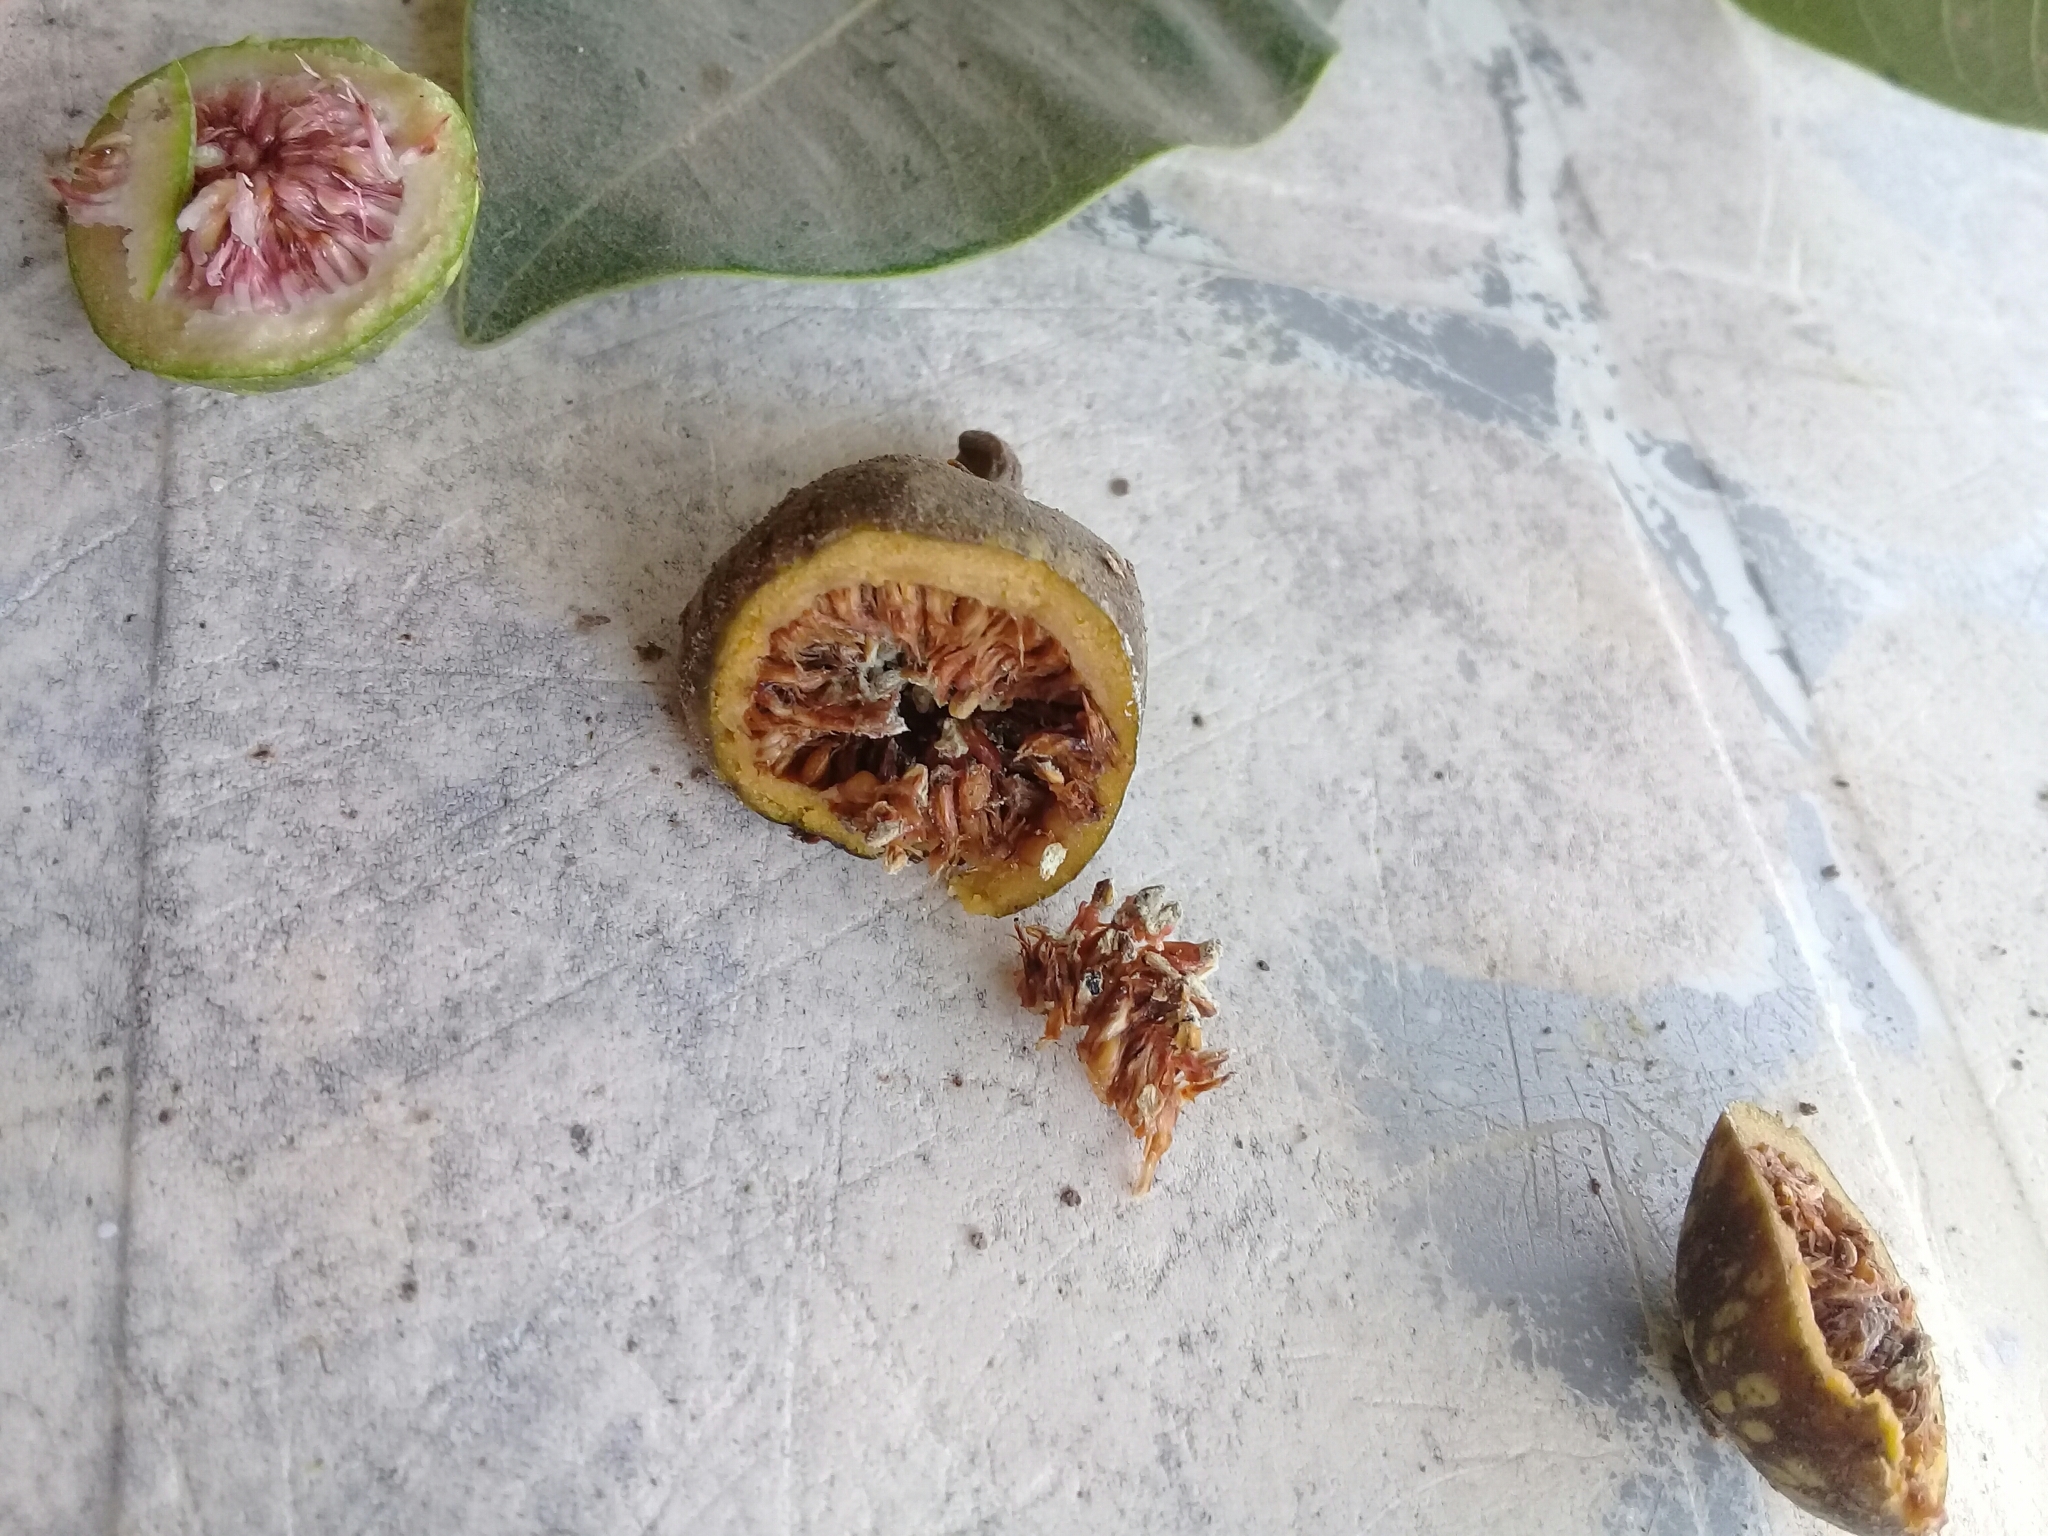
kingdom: Plantae
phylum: Tracheophyta
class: Magnoliopsida
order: Rosales
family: Moraceae
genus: Ficus
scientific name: Ficus insipida
